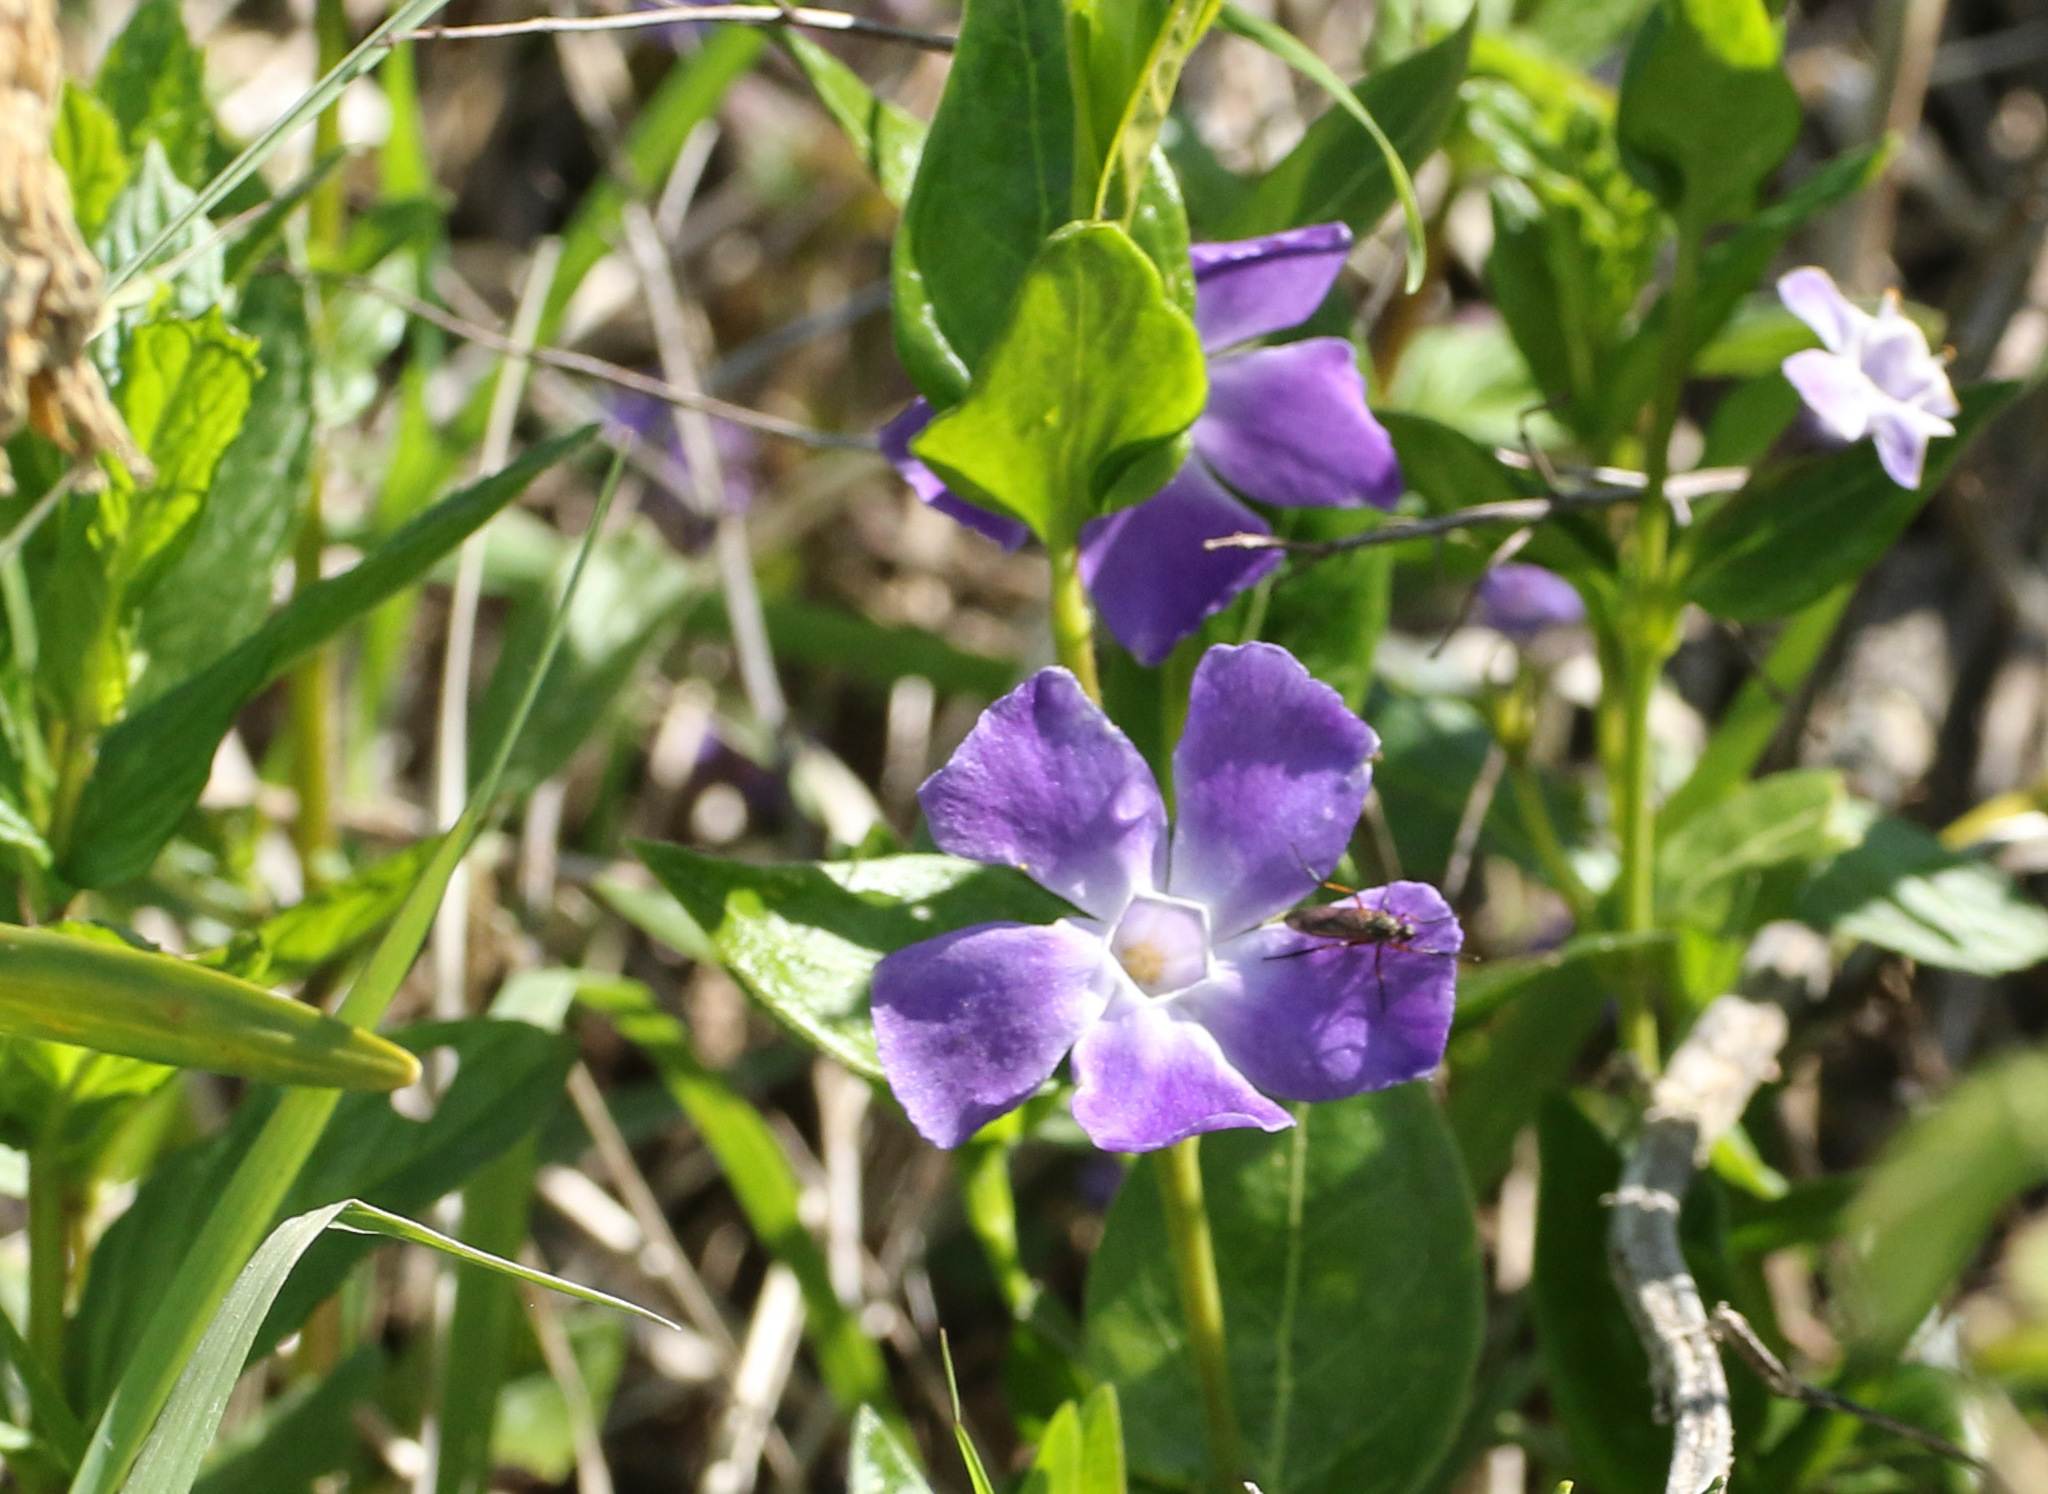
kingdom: Plantae
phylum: Tracheophyta
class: Magnoliopsida
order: Gentianales
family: Apocynaceae
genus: Vinca
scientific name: Vinca major
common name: Greater periwinkle
